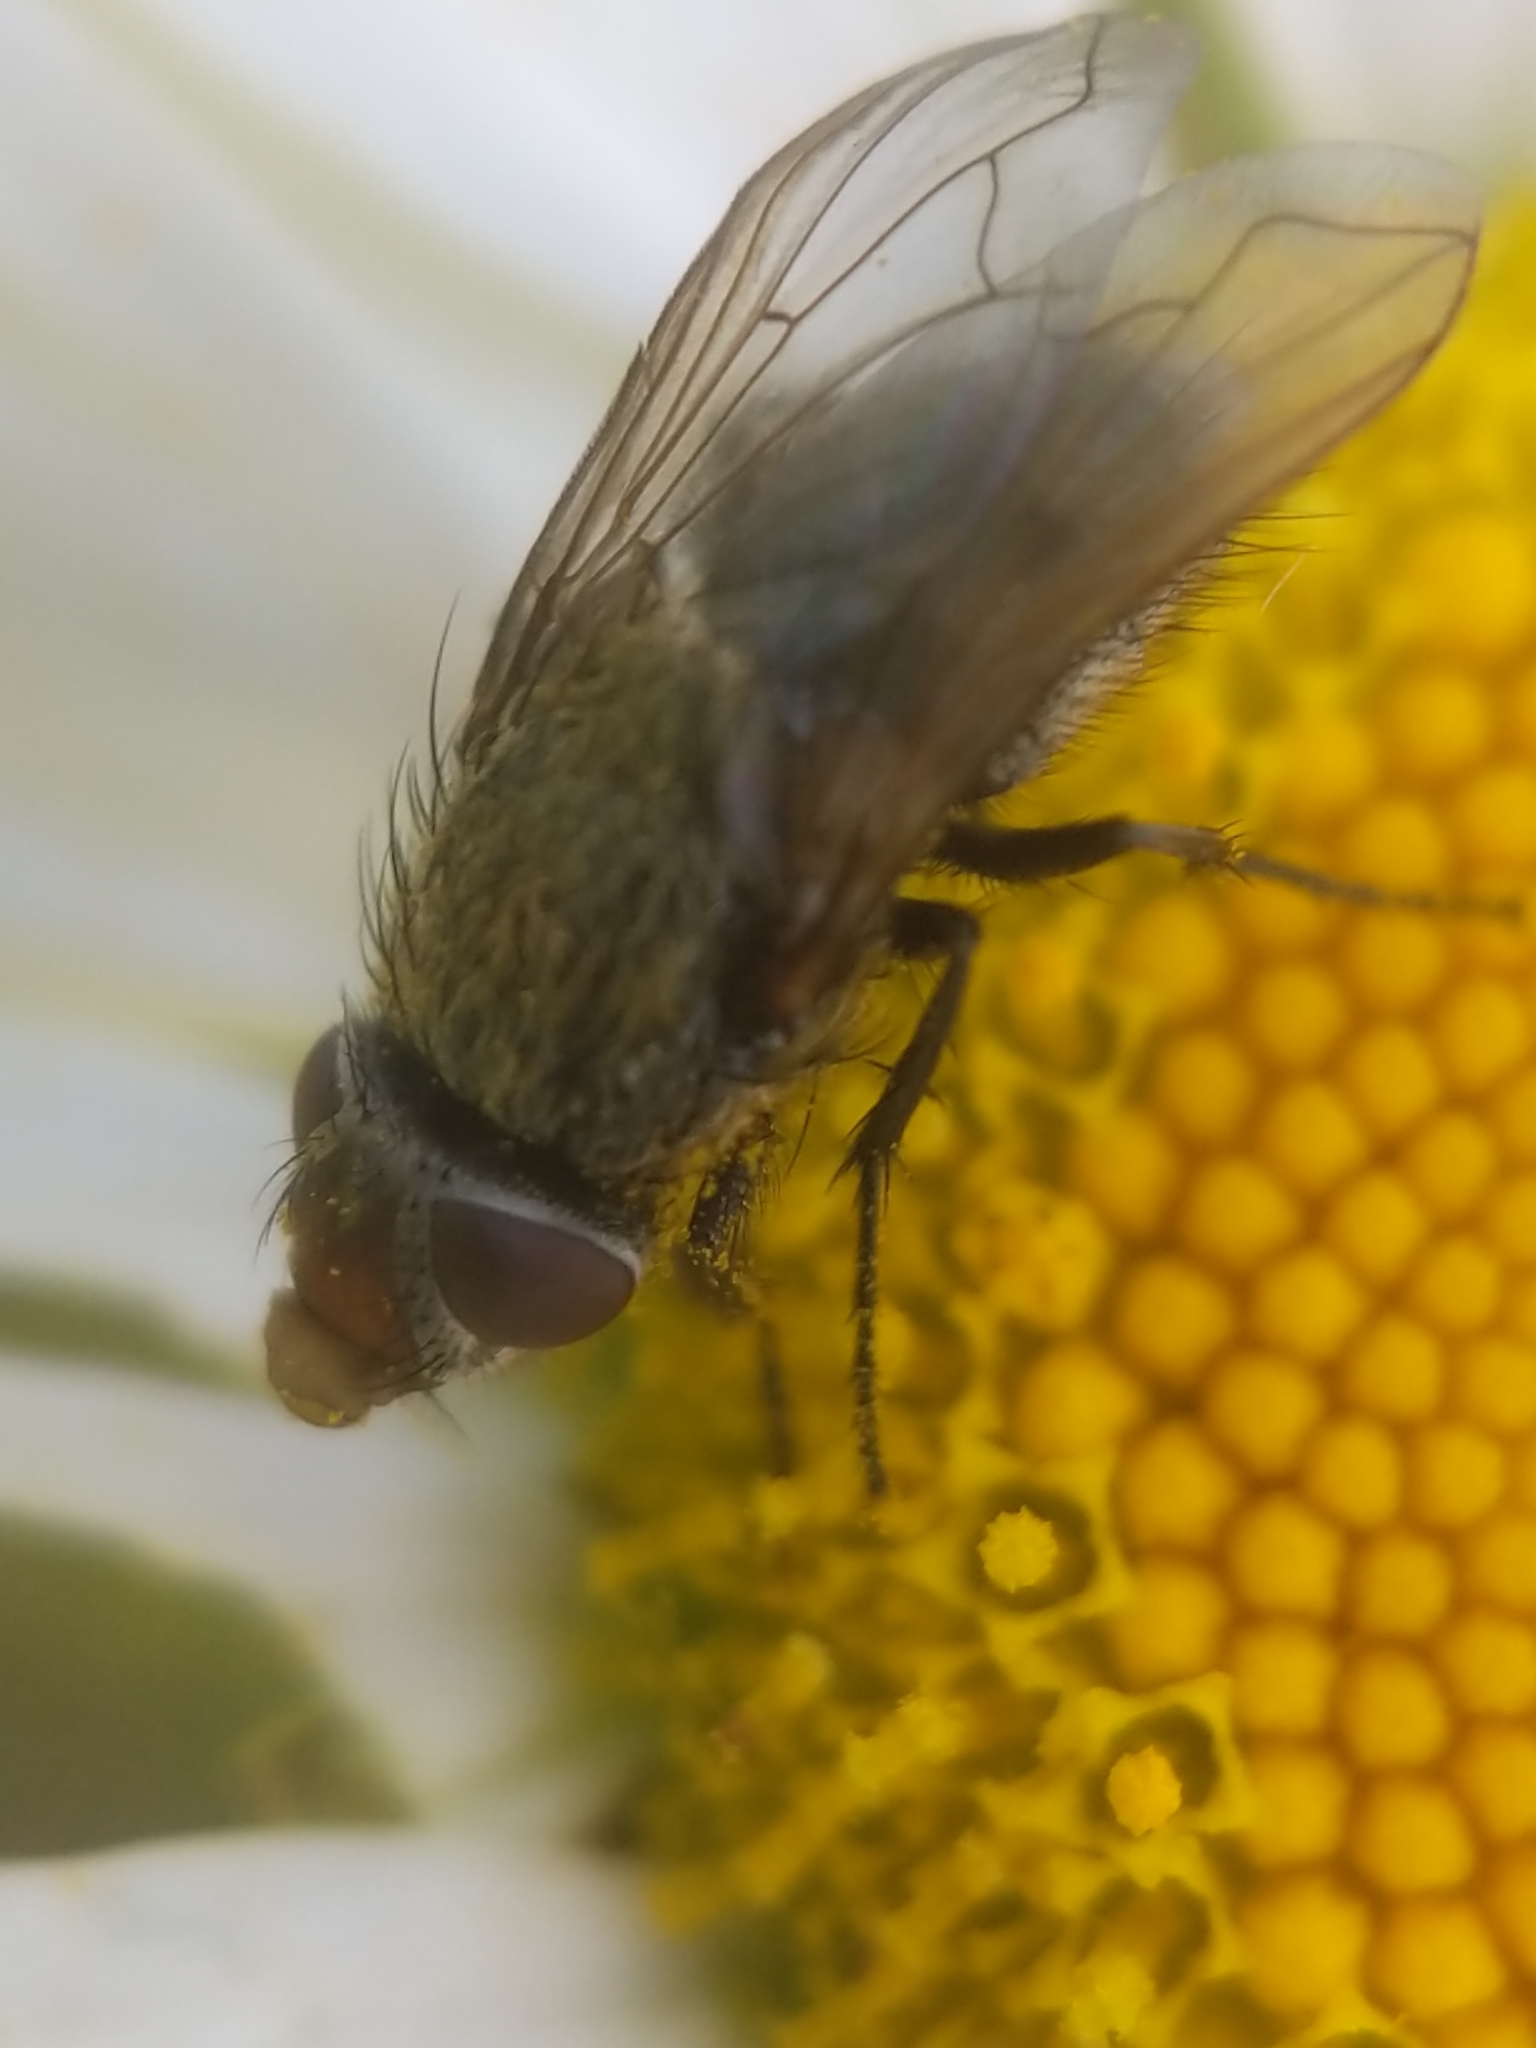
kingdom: Animalia
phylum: Arthropoda
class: Insecta
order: Diptera
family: Polleniidae
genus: Pollenia
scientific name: Pollenia
